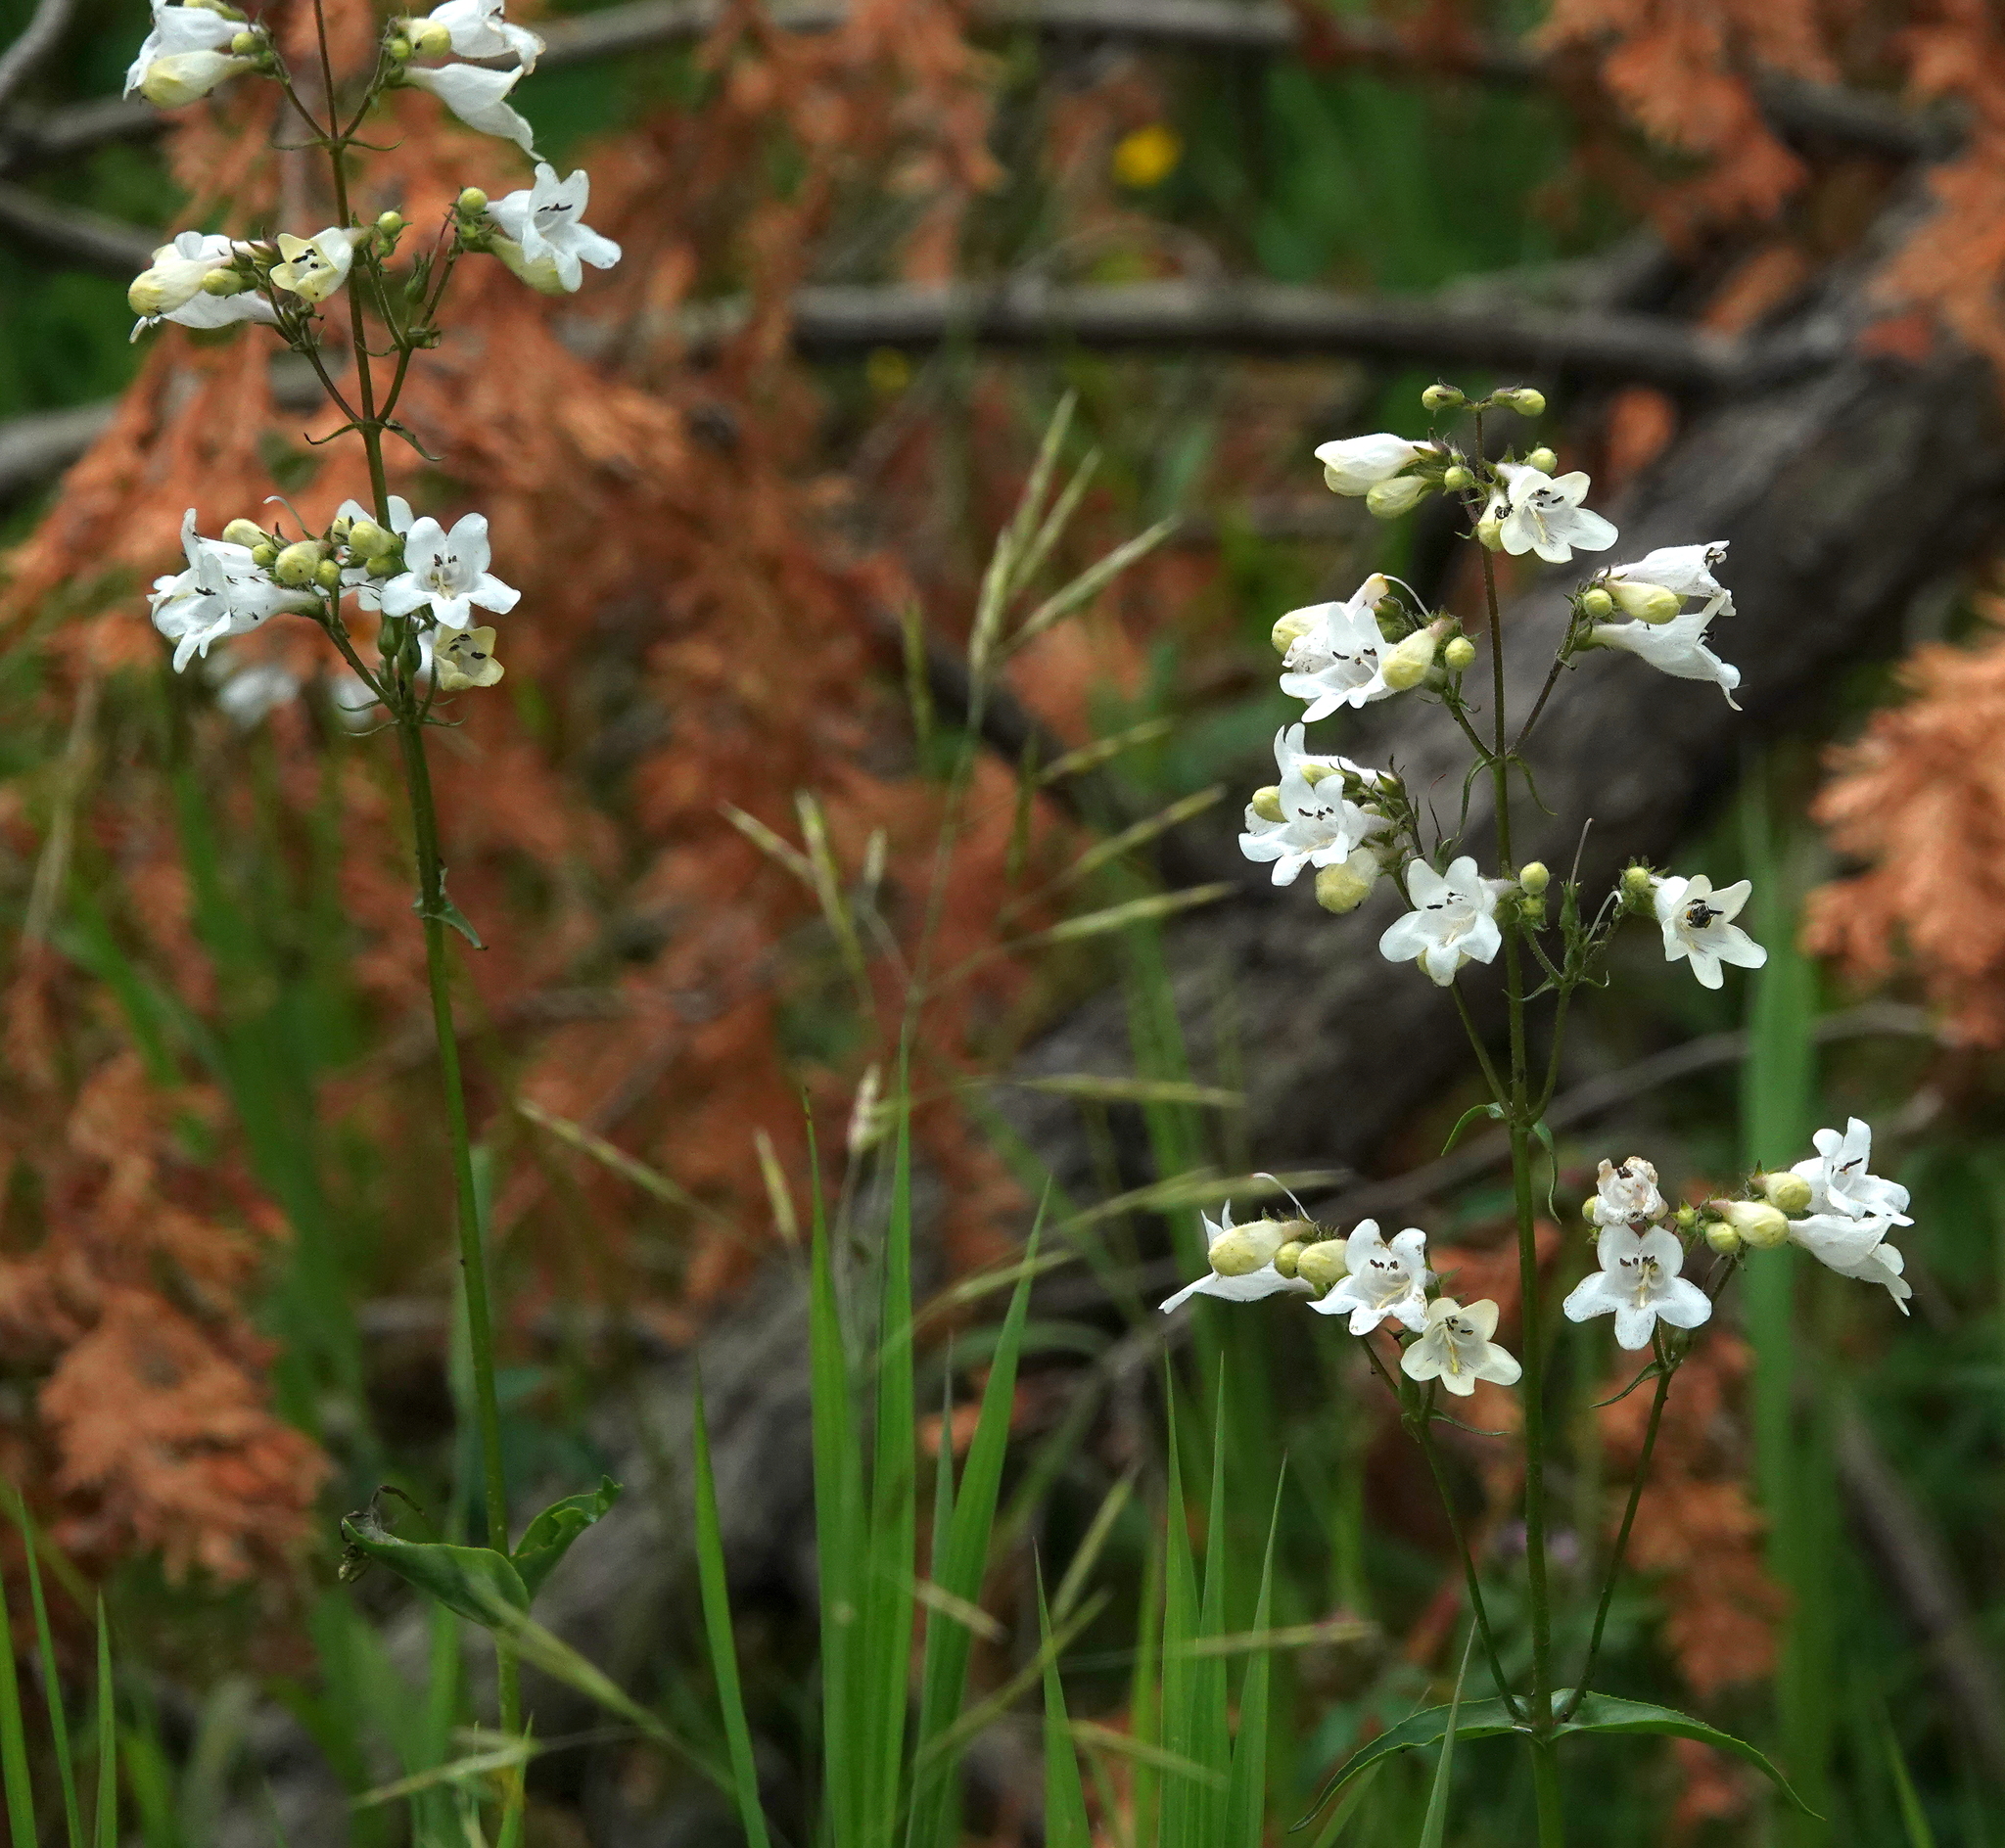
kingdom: Plantae
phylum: Tracheophyta
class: Magnoliopsida
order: Lamiales
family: Plantaginaceae
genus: Penstemon
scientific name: Penstemon digitalis
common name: Foxglove beardtongue
